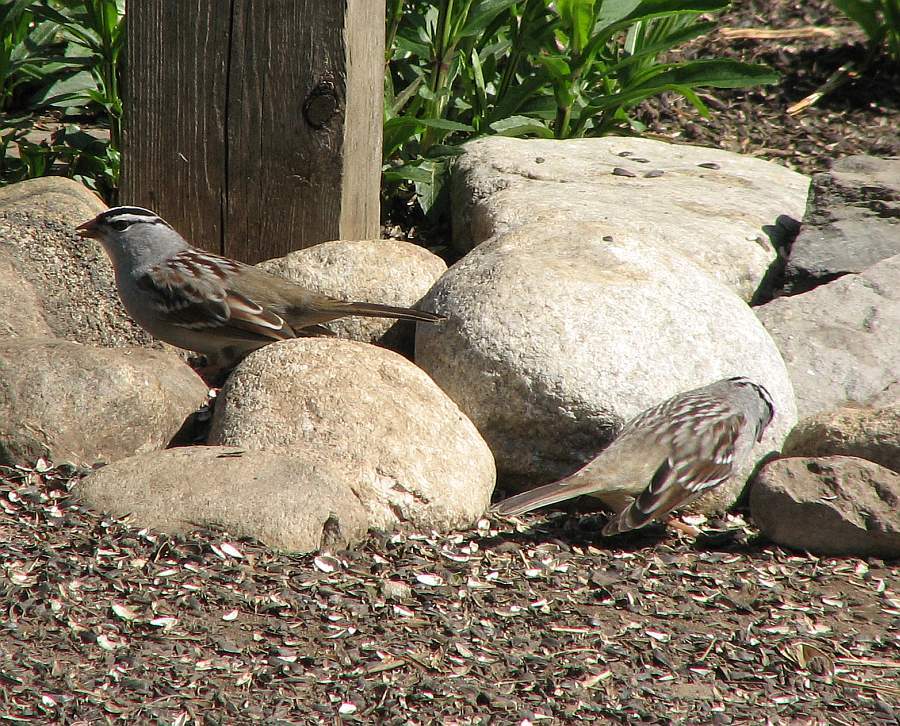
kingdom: Animalia
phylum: Chordata
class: Aves
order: Passeriformes
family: Passerellidae
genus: Zonotrichia
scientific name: Zonotrichia leucophrys
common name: White-crowned sparrow
